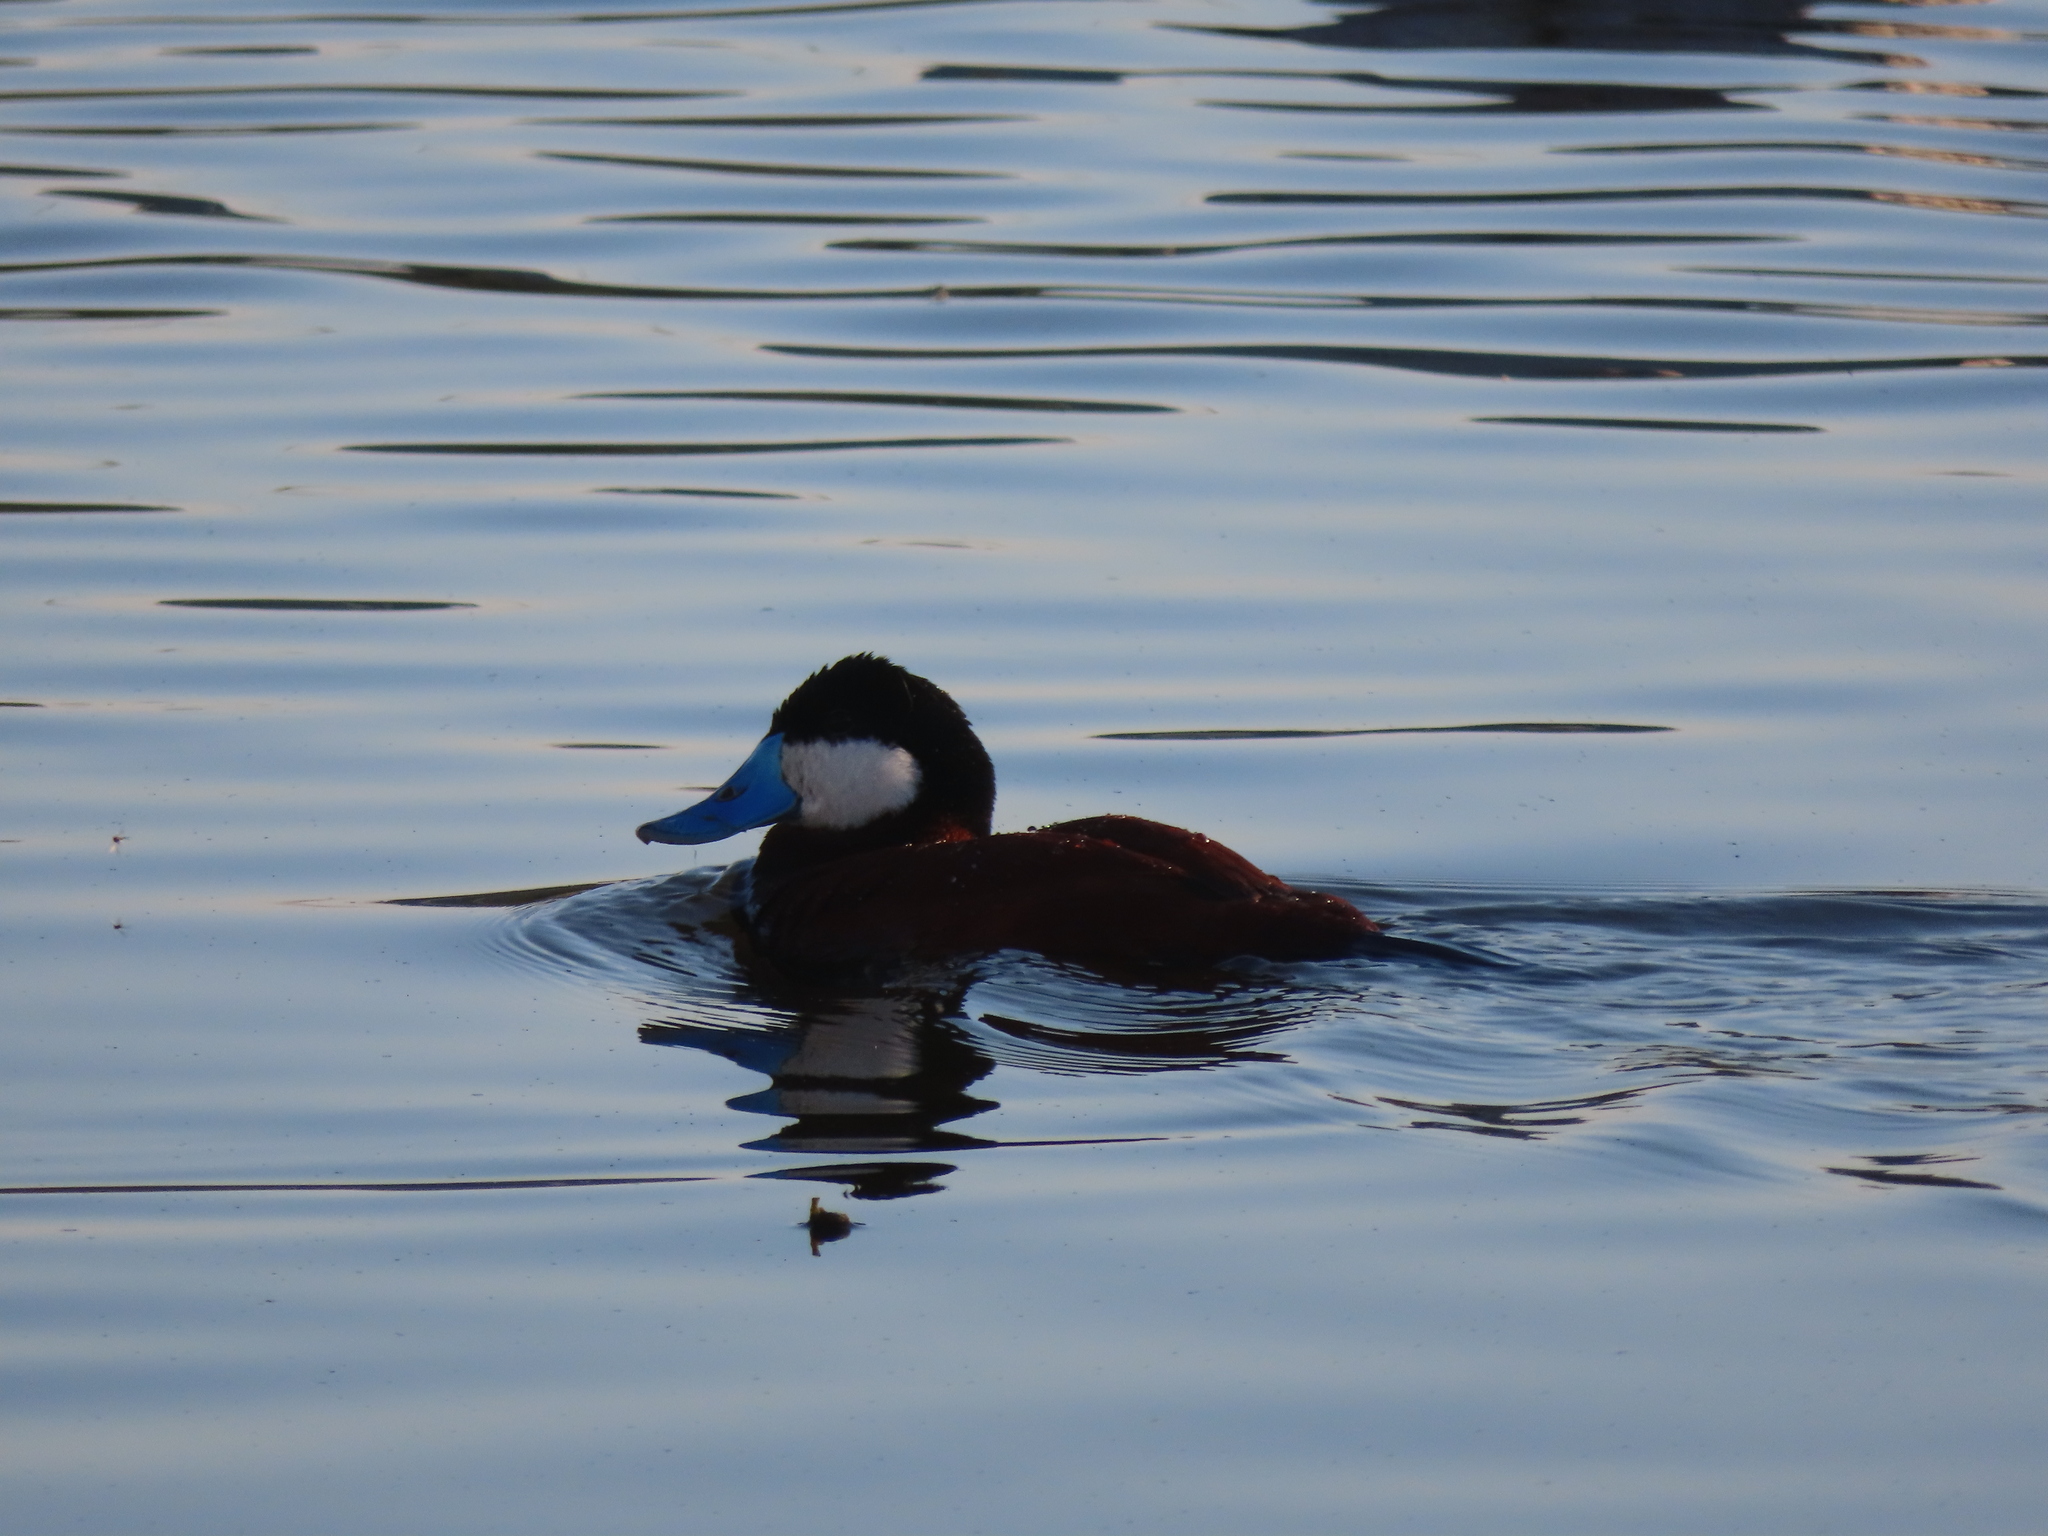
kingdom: Animalia
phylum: Chordata
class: Aves
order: Anseriformes
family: Anatidae
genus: Oxyura
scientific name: Oxyura jamaicensis
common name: Ruddy duck
